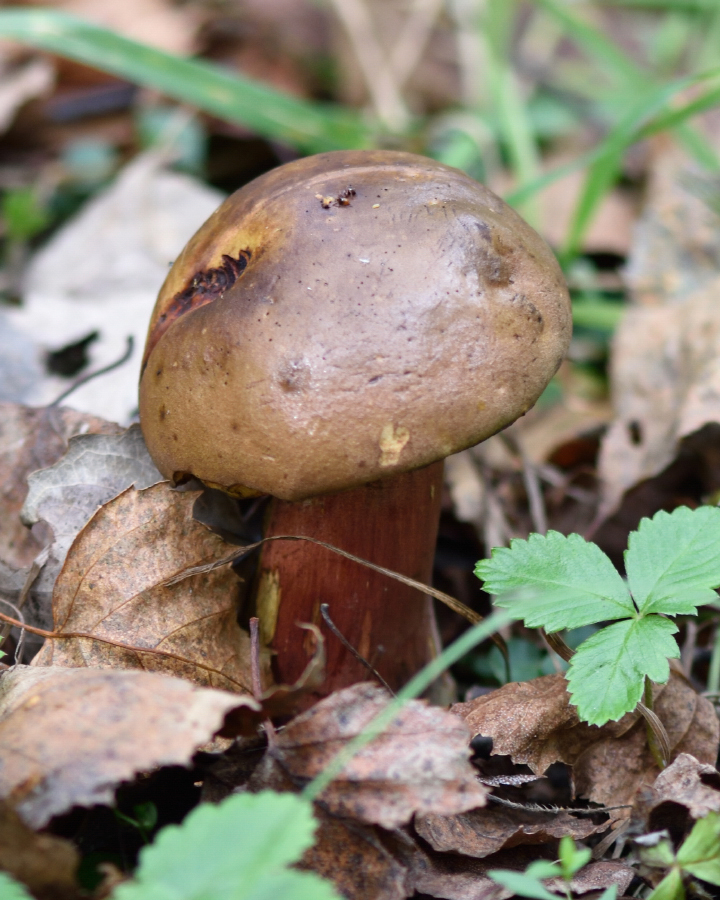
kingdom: Fungi
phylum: Basidiomycota
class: Agaricomycetes
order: Boletales
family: Boletaceae
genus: Neoboletus
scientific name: Neoboletus erythropus
